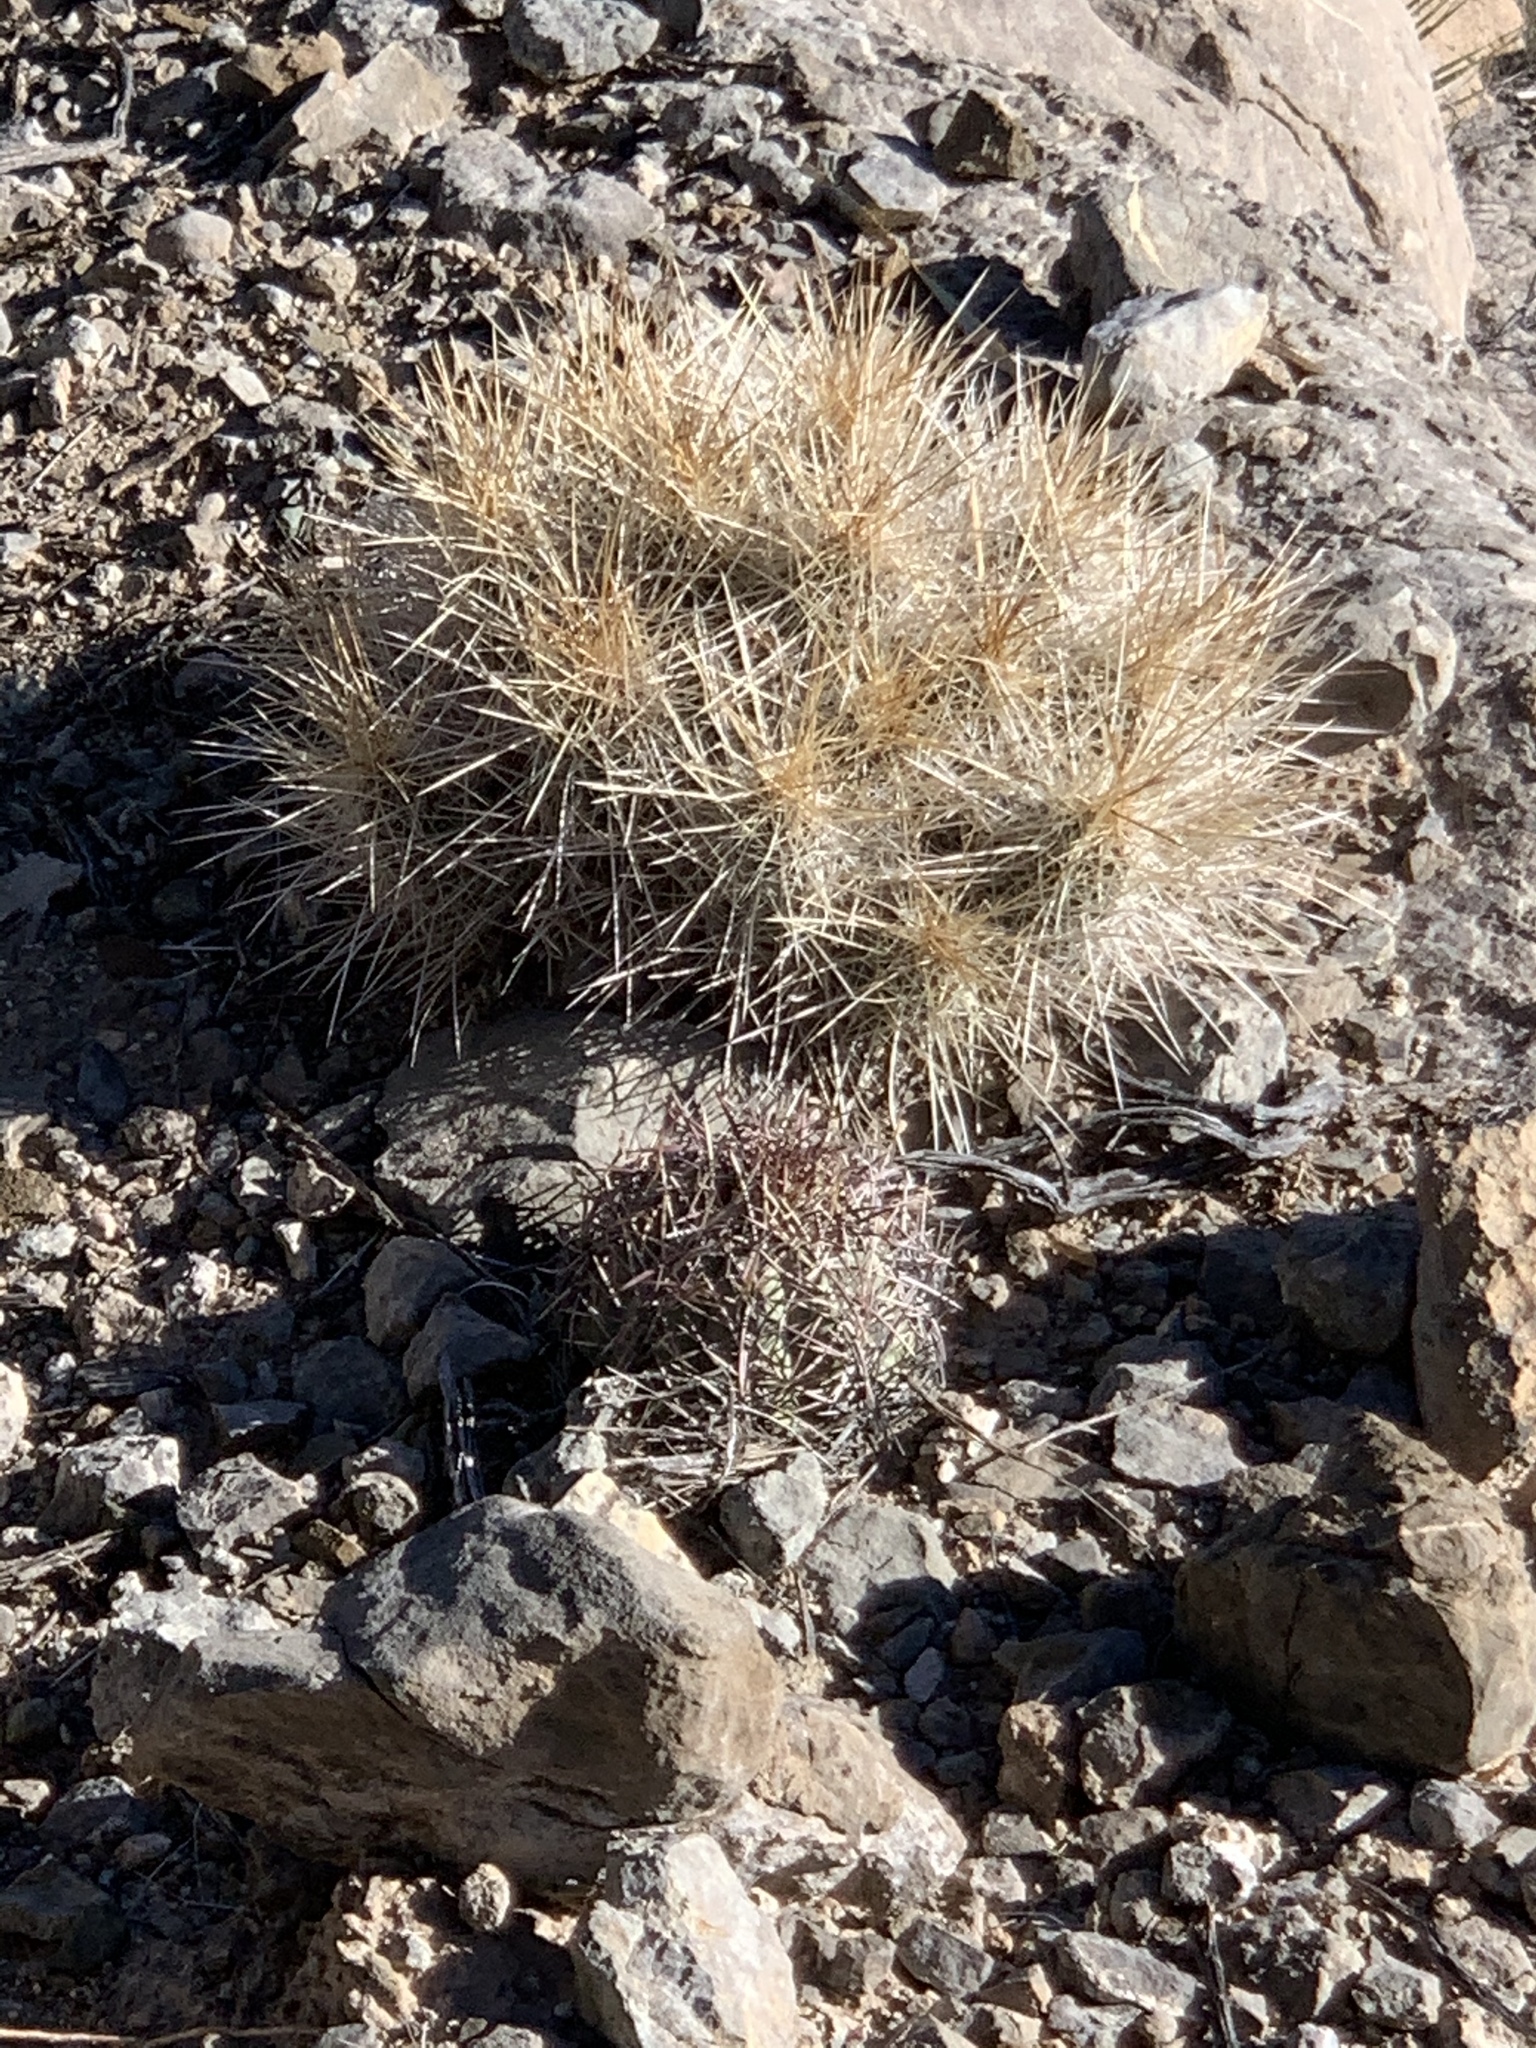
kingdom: Plantae
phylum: Tracheophyta
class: Magnoliopsida
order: Caryophyllales
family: Cactaceae
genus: Echinocactus
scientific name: Echinocactus horizonthalonius
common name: Devilshead
